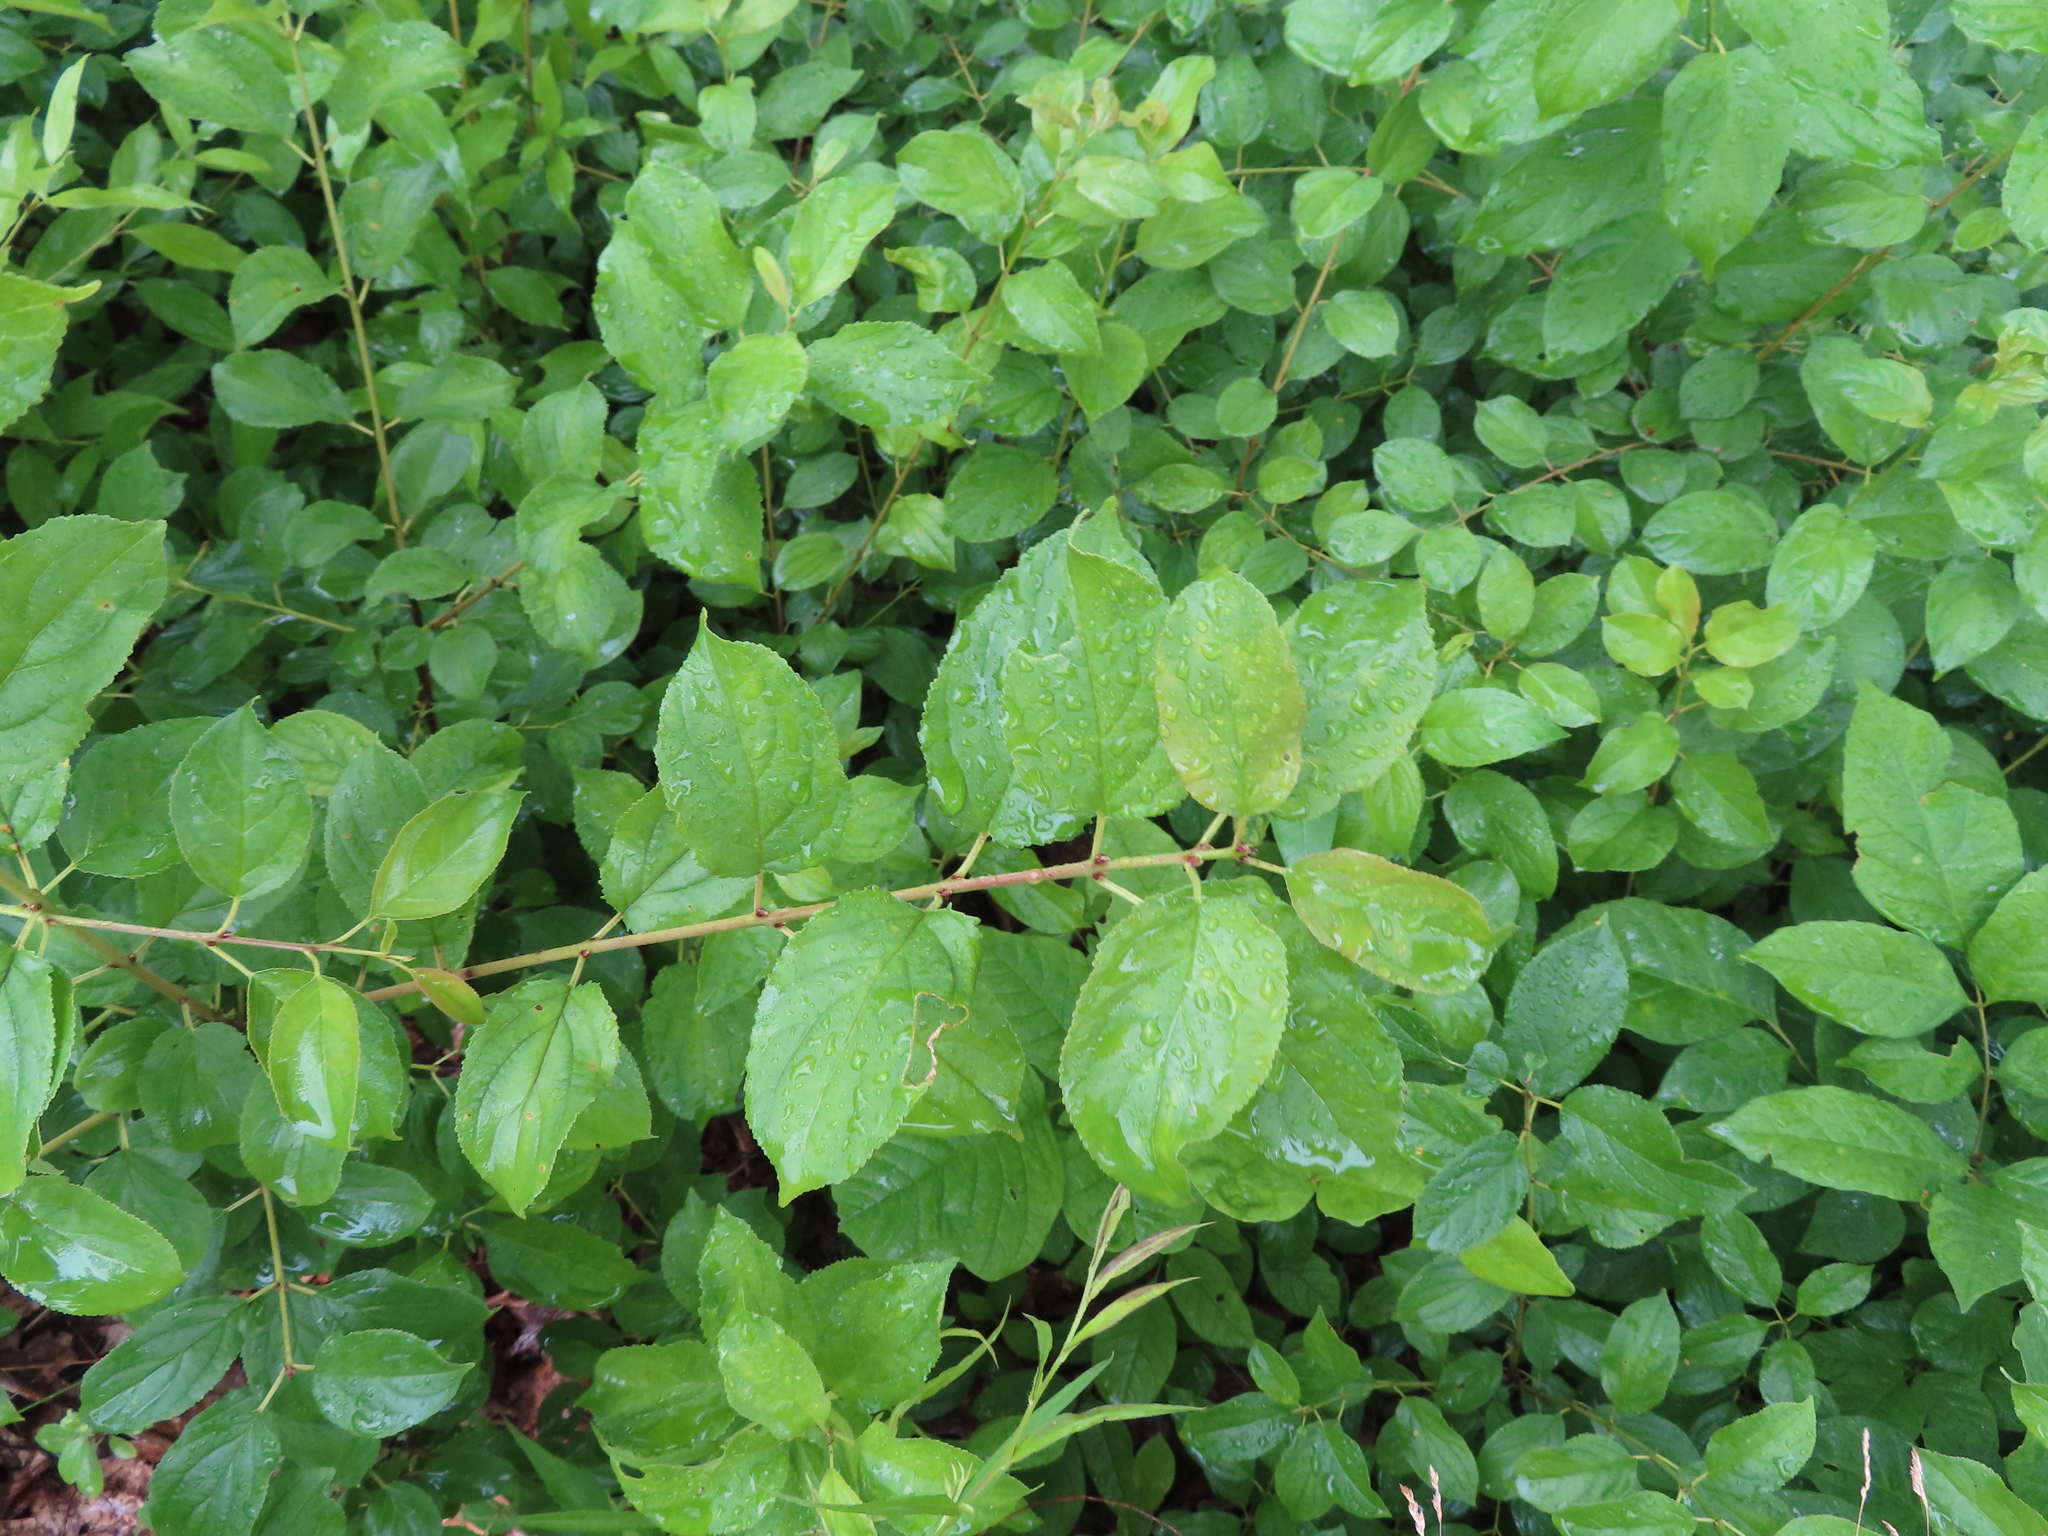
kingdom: Plantae
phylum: Tracheophyta
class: Magnoliopsida
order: Rosales
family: Rhamnaceae
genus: Rhamnus
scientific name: Rhamnus cathartica
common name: Common buckthorn
